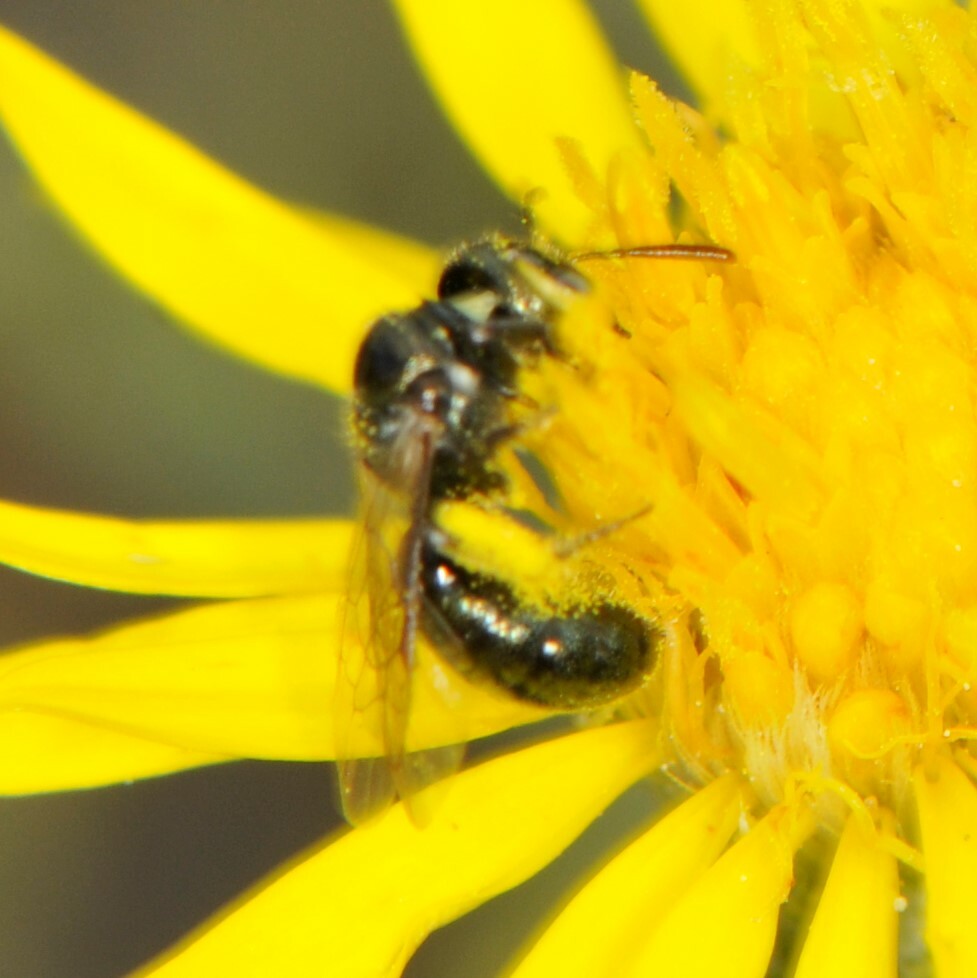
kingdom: Animalia
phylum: Arthropoda
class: Insecta
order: Hymenoptera
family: Apidae
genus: Zadontomerus
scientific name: Zadontomerus
